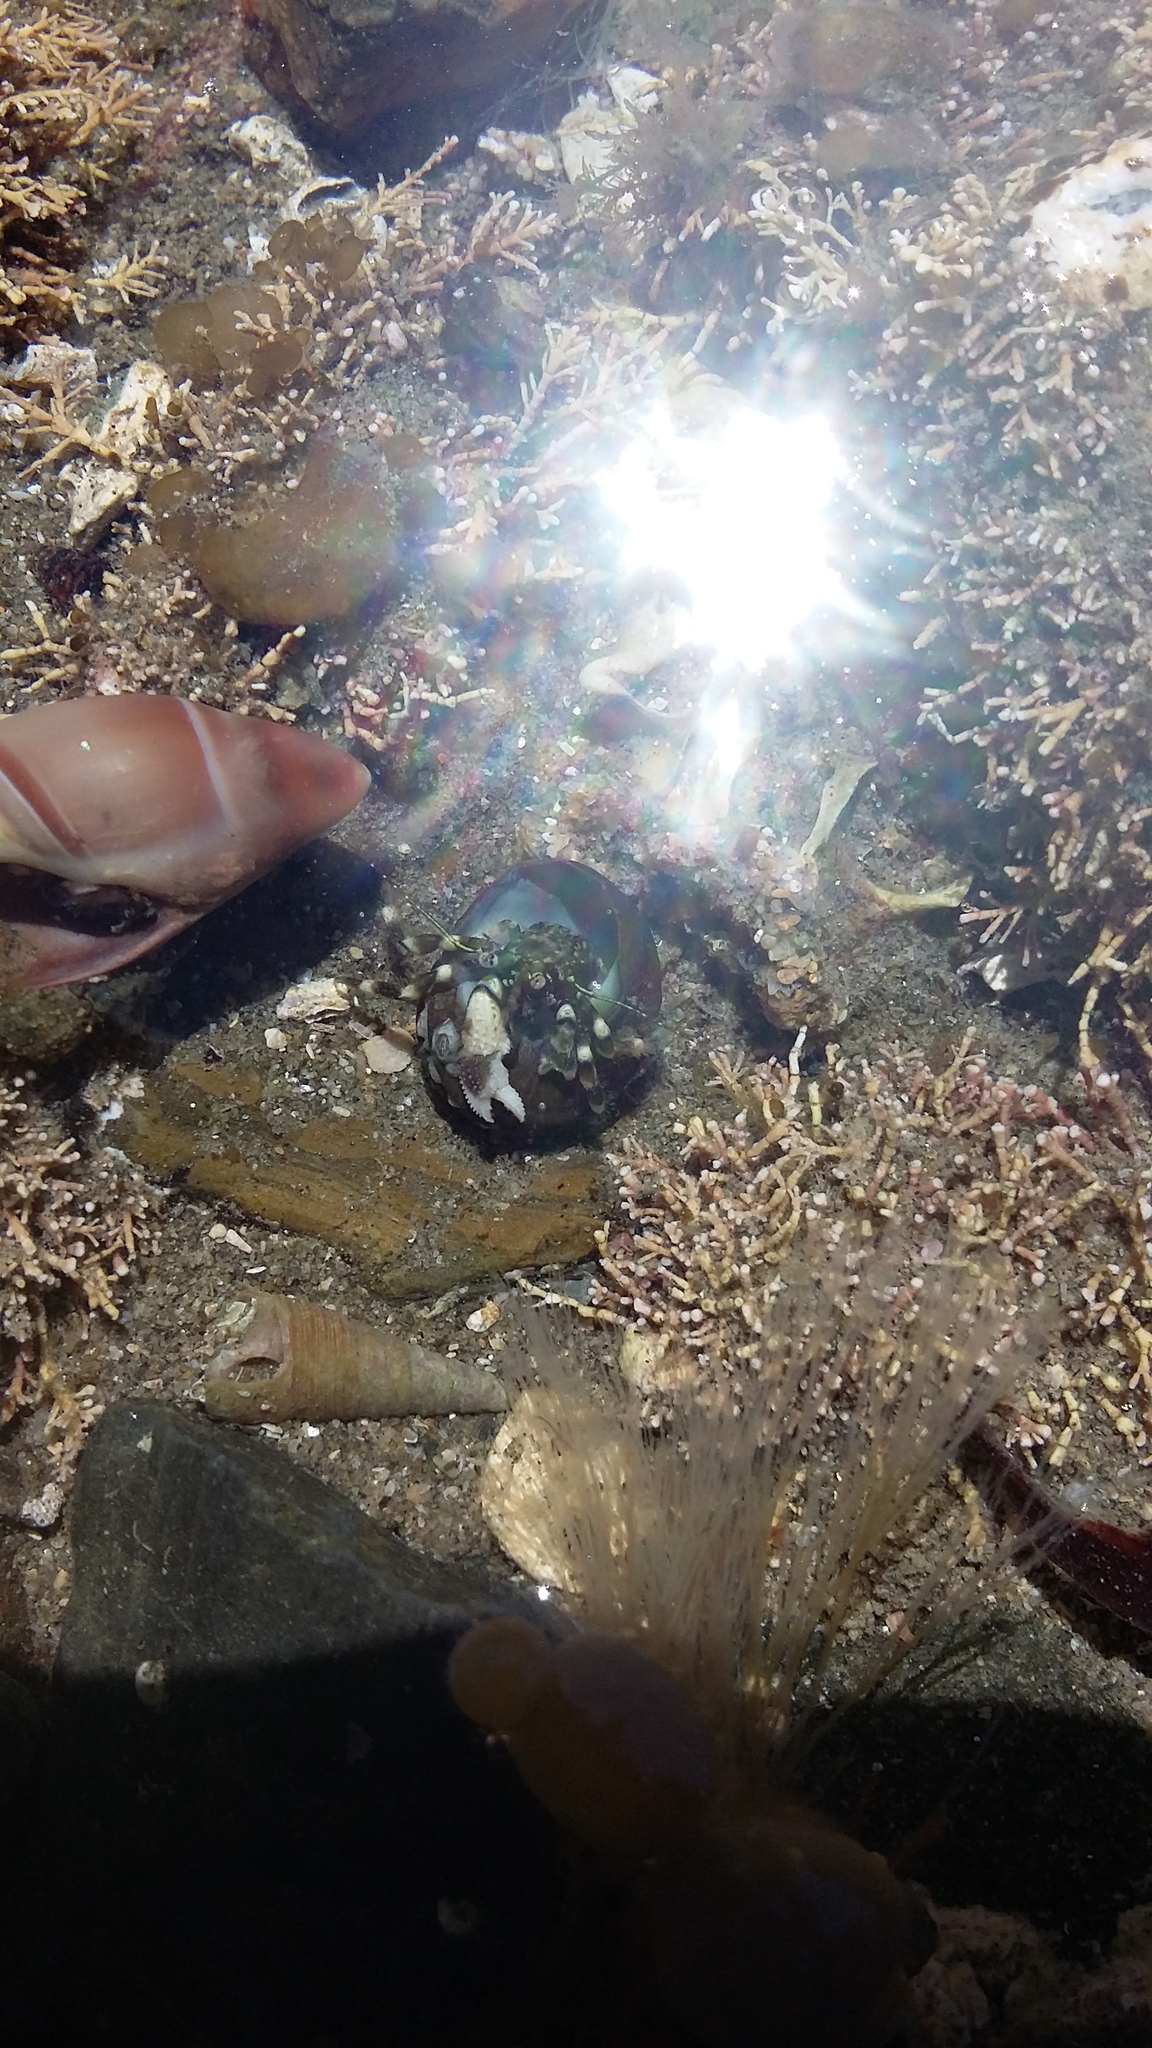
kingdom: Animalia
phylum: Arthropoda
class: Malacostraca
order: Decapoda
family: Paguridae
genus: Pagurus
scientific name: Pagurus novizealandiae
